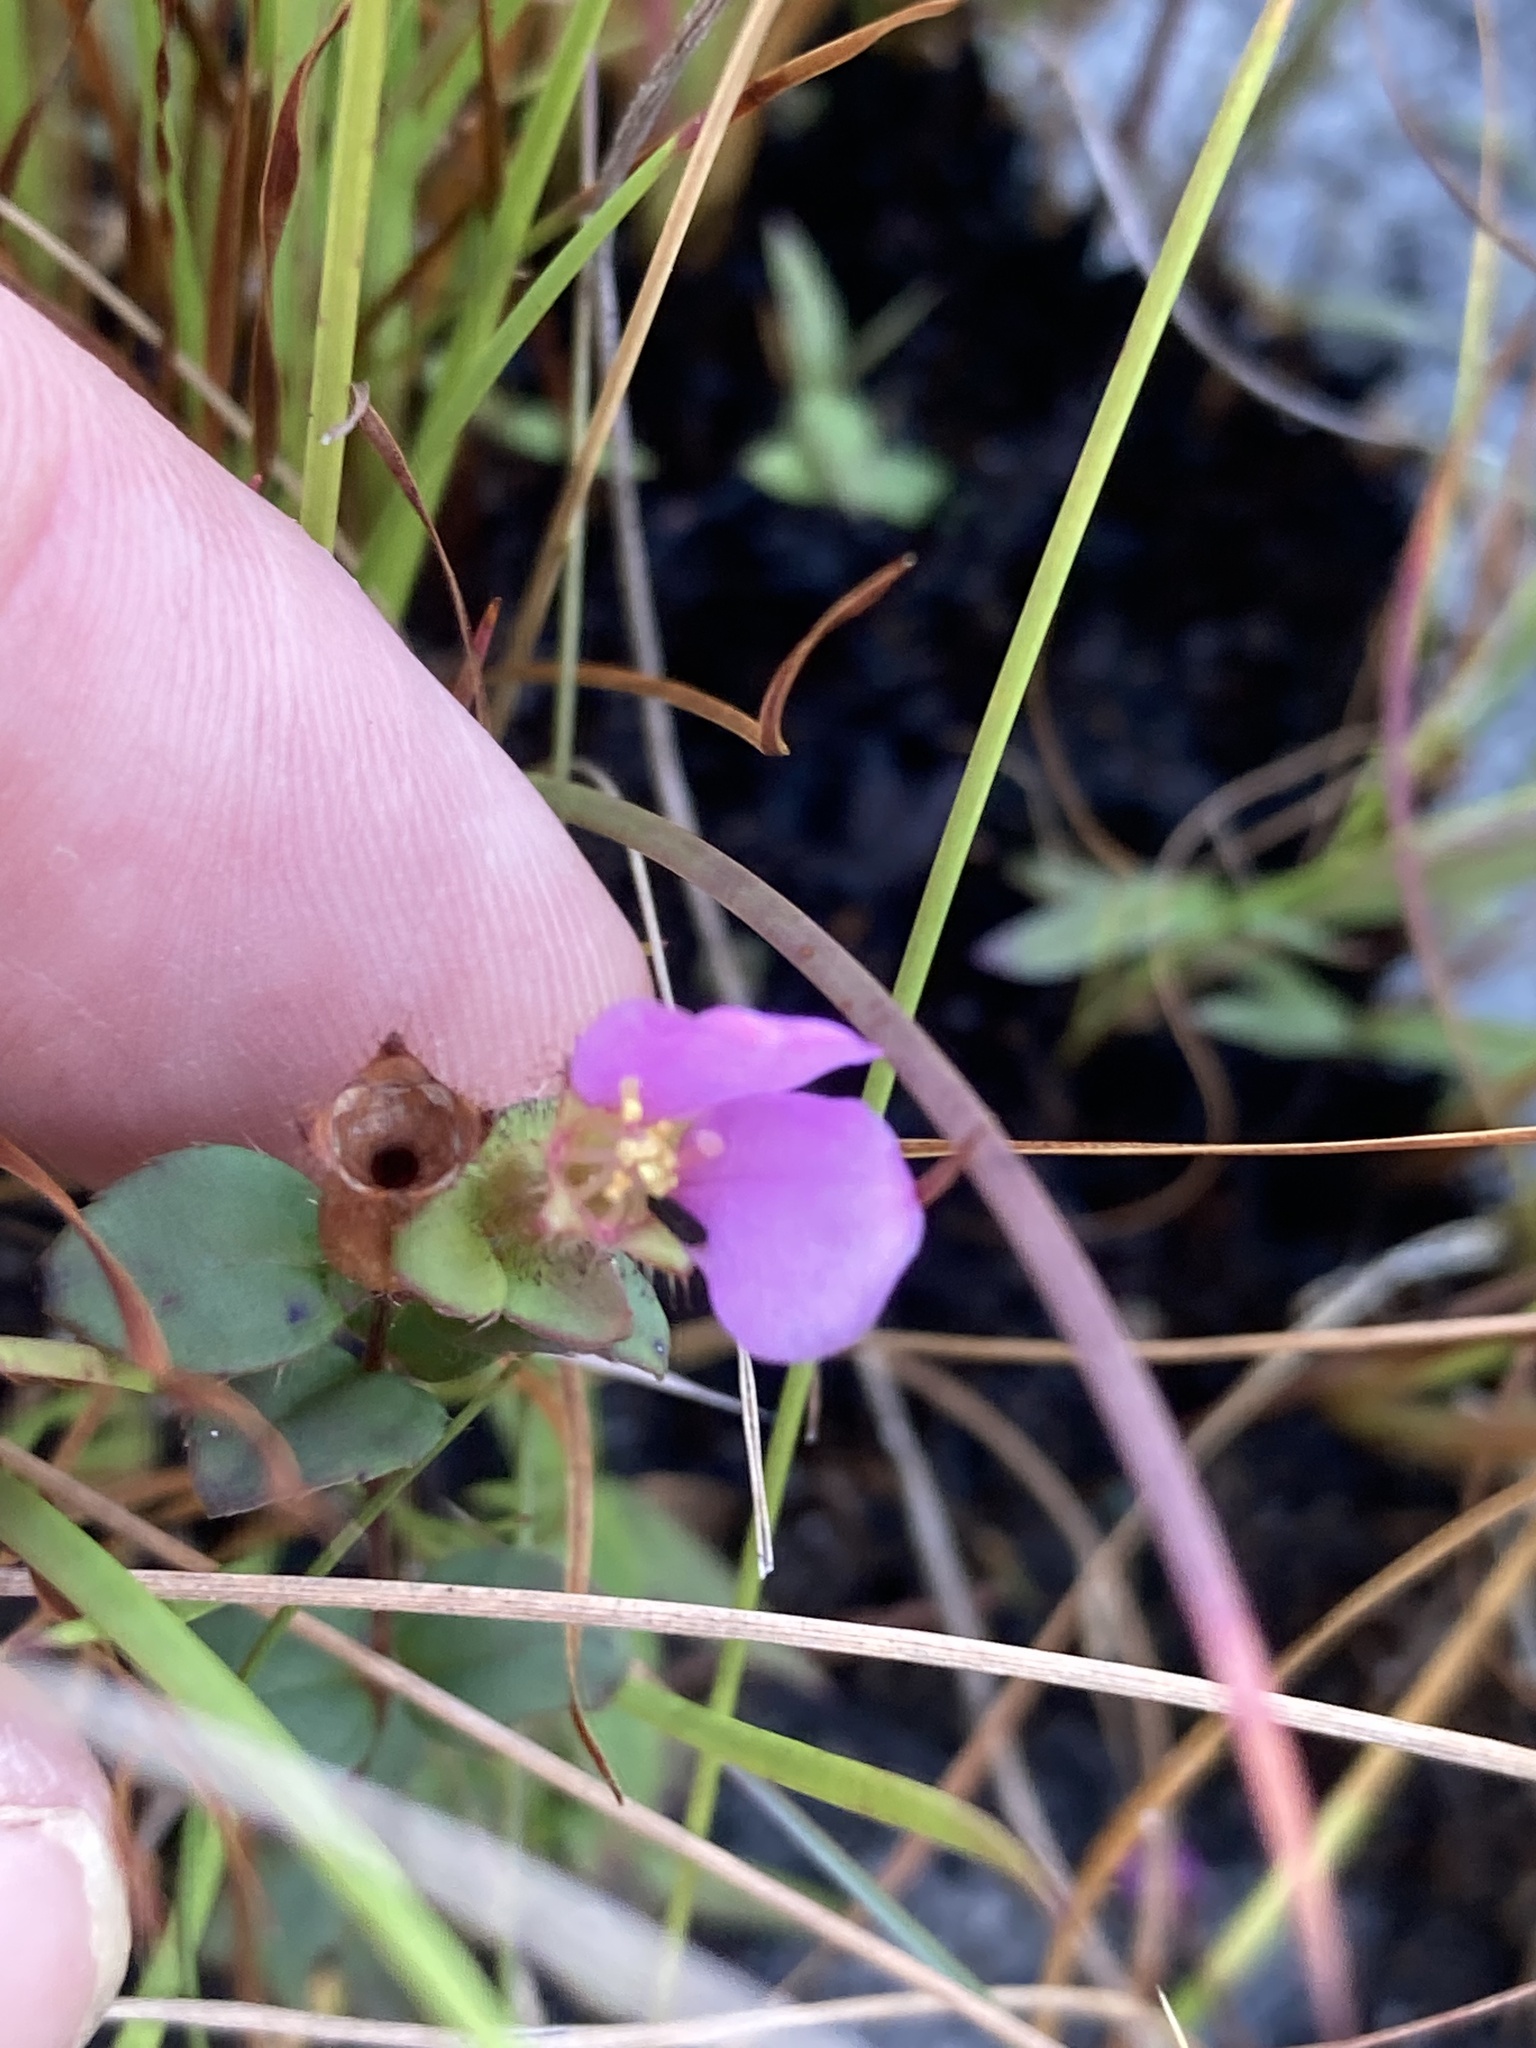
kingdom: Plantae
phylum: Tracheophyta
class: Magnoliopsida
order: Myrtales
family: Melastomataceae
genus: Rhexia
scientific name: Rhexia nuttallii
